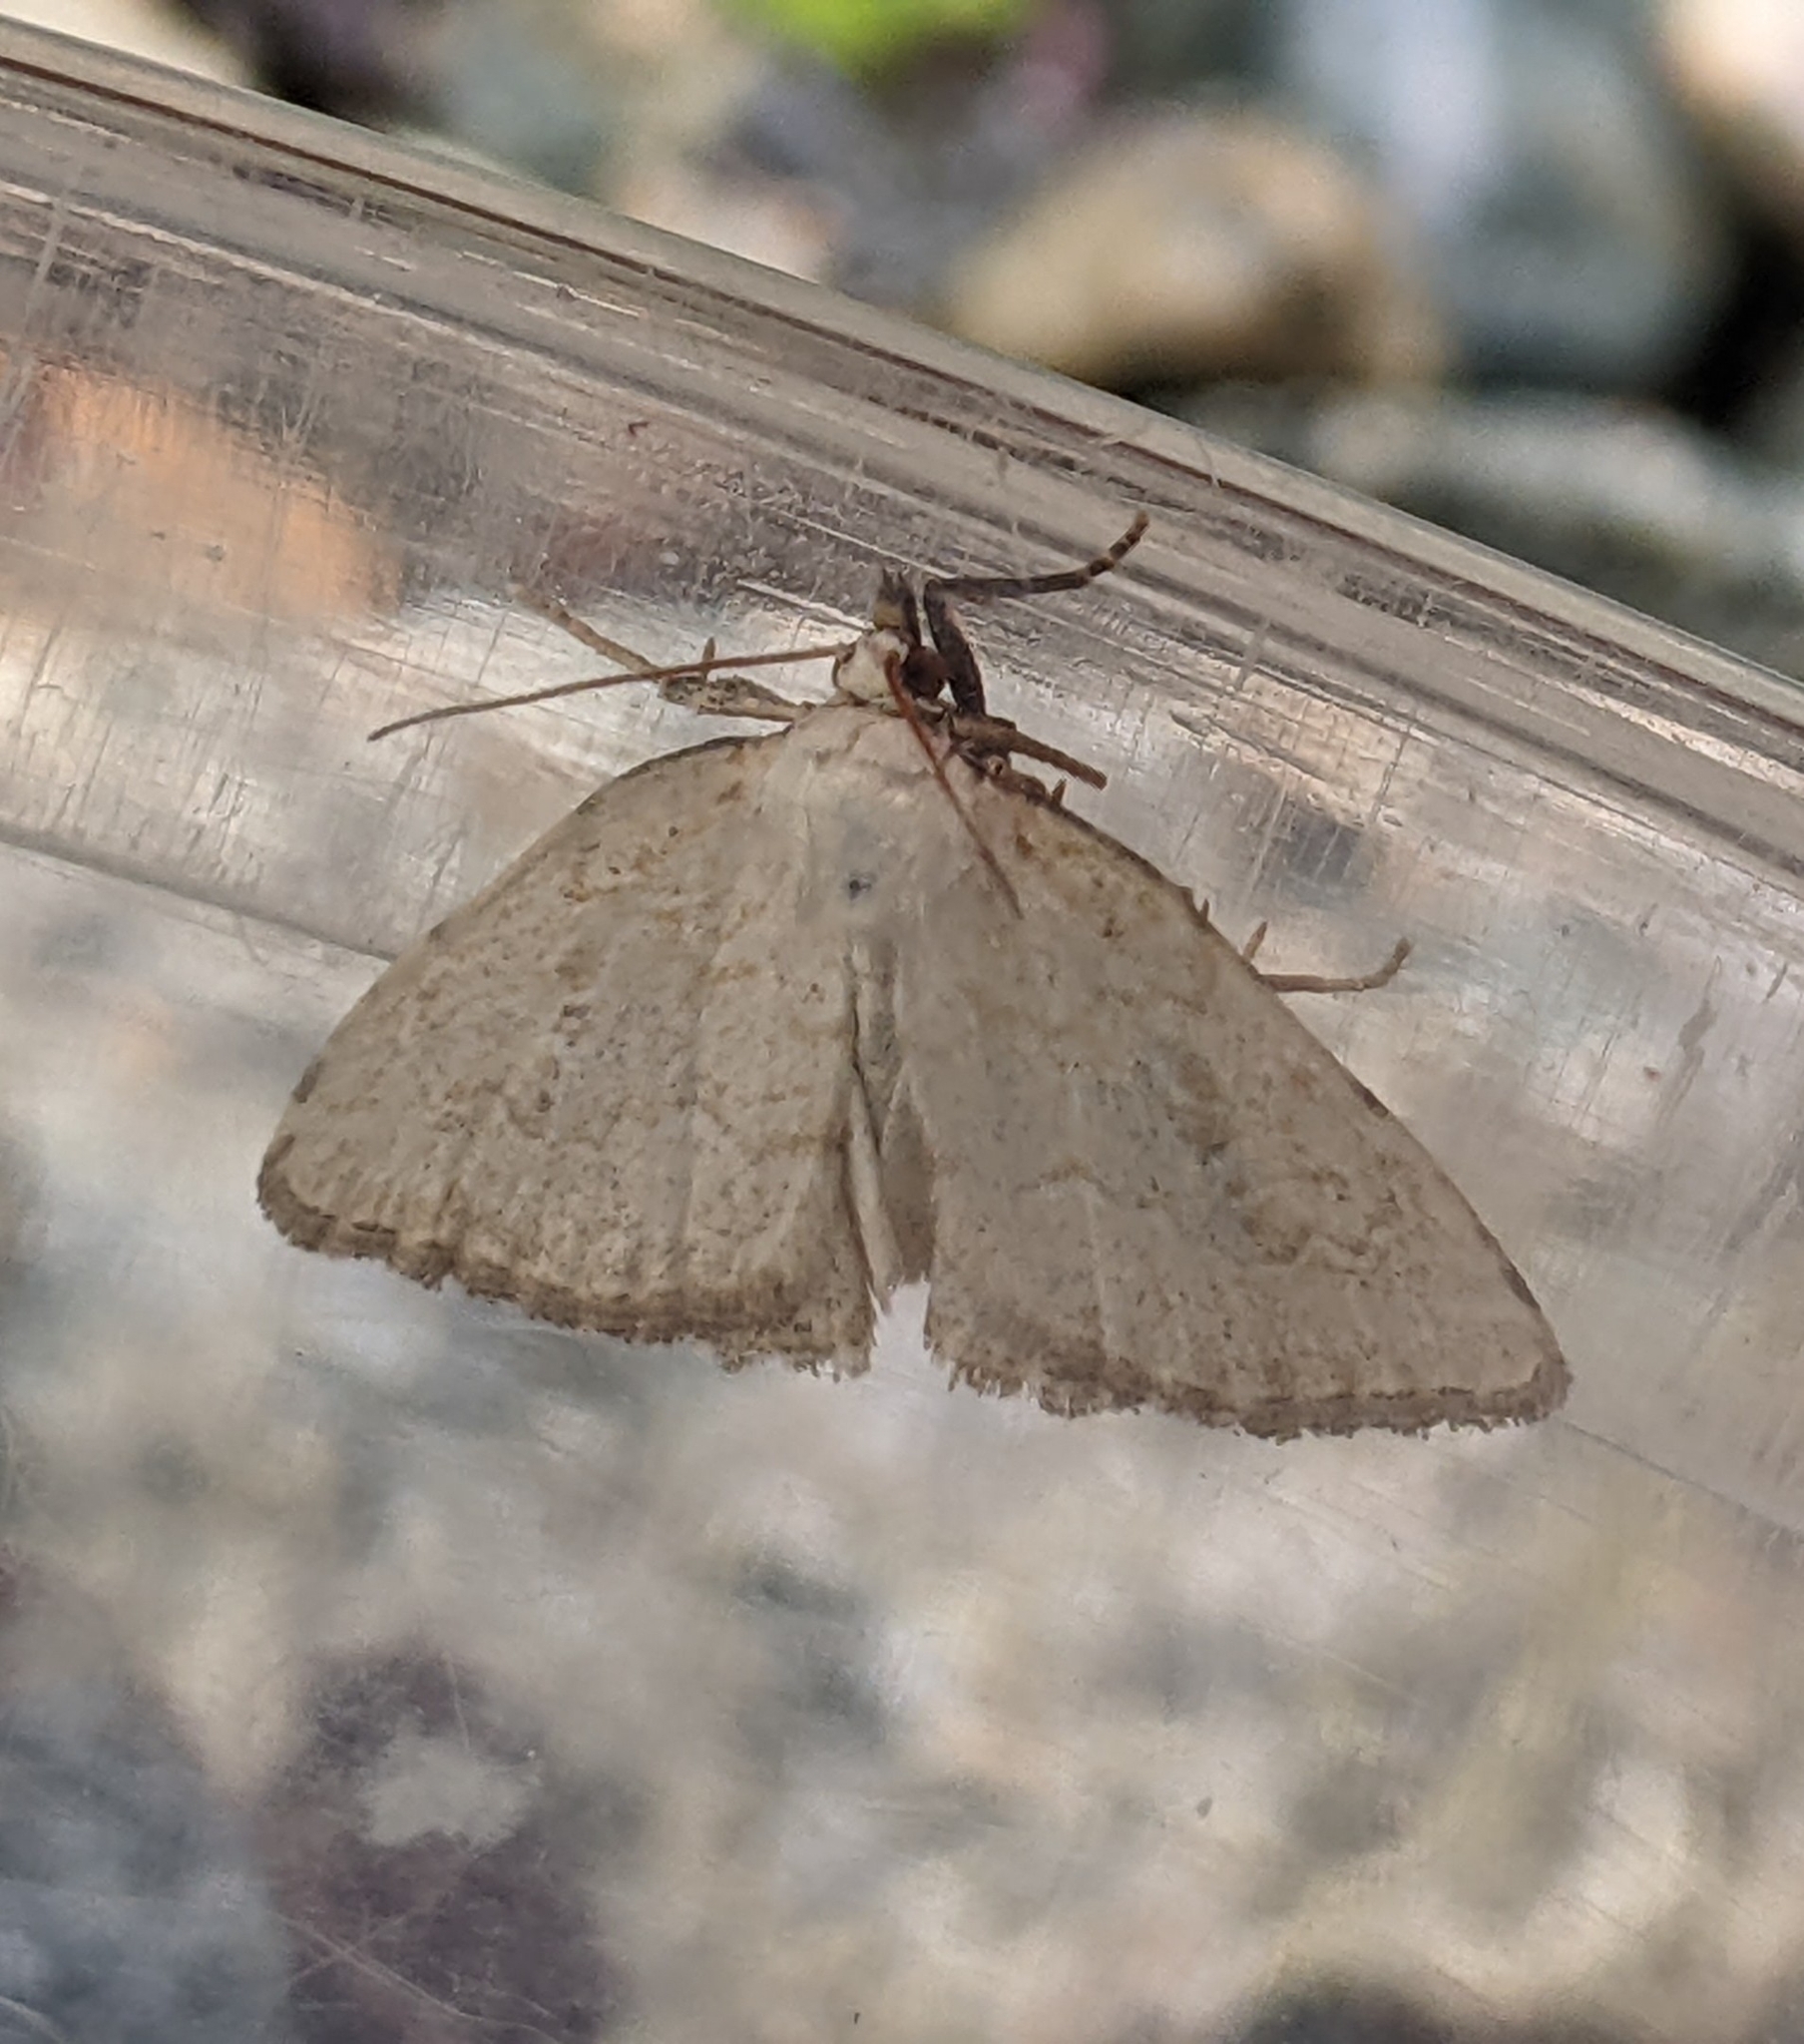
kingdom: Animalia
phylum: Arthropoda
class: Insecta
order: Lepidoptera
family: Noctuidae
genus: Protodeltote
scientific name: Protodeltote albidula
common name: Pale glyph
